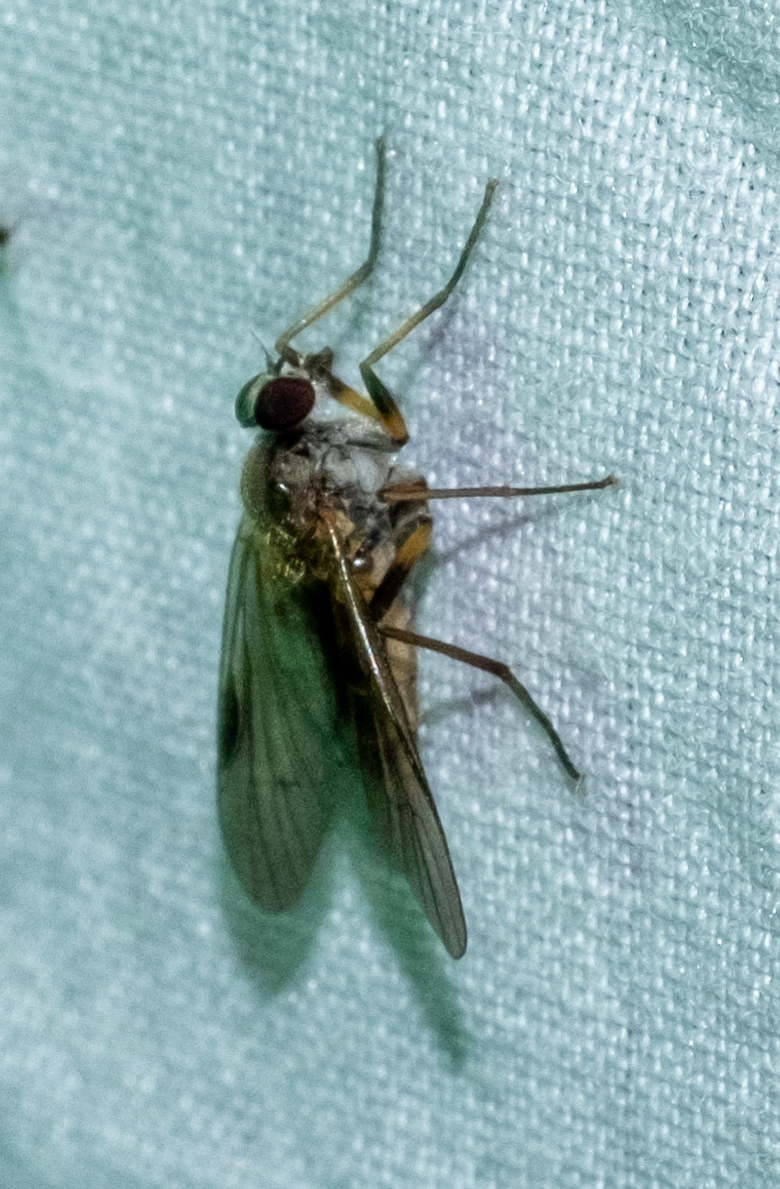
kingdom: Animalia
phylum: Arthropoda
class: Insecta
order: Diptera
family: Rhagionidae
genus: Rhagio
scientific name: Rhagio lineola
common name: Small fleck-winged snipefly
